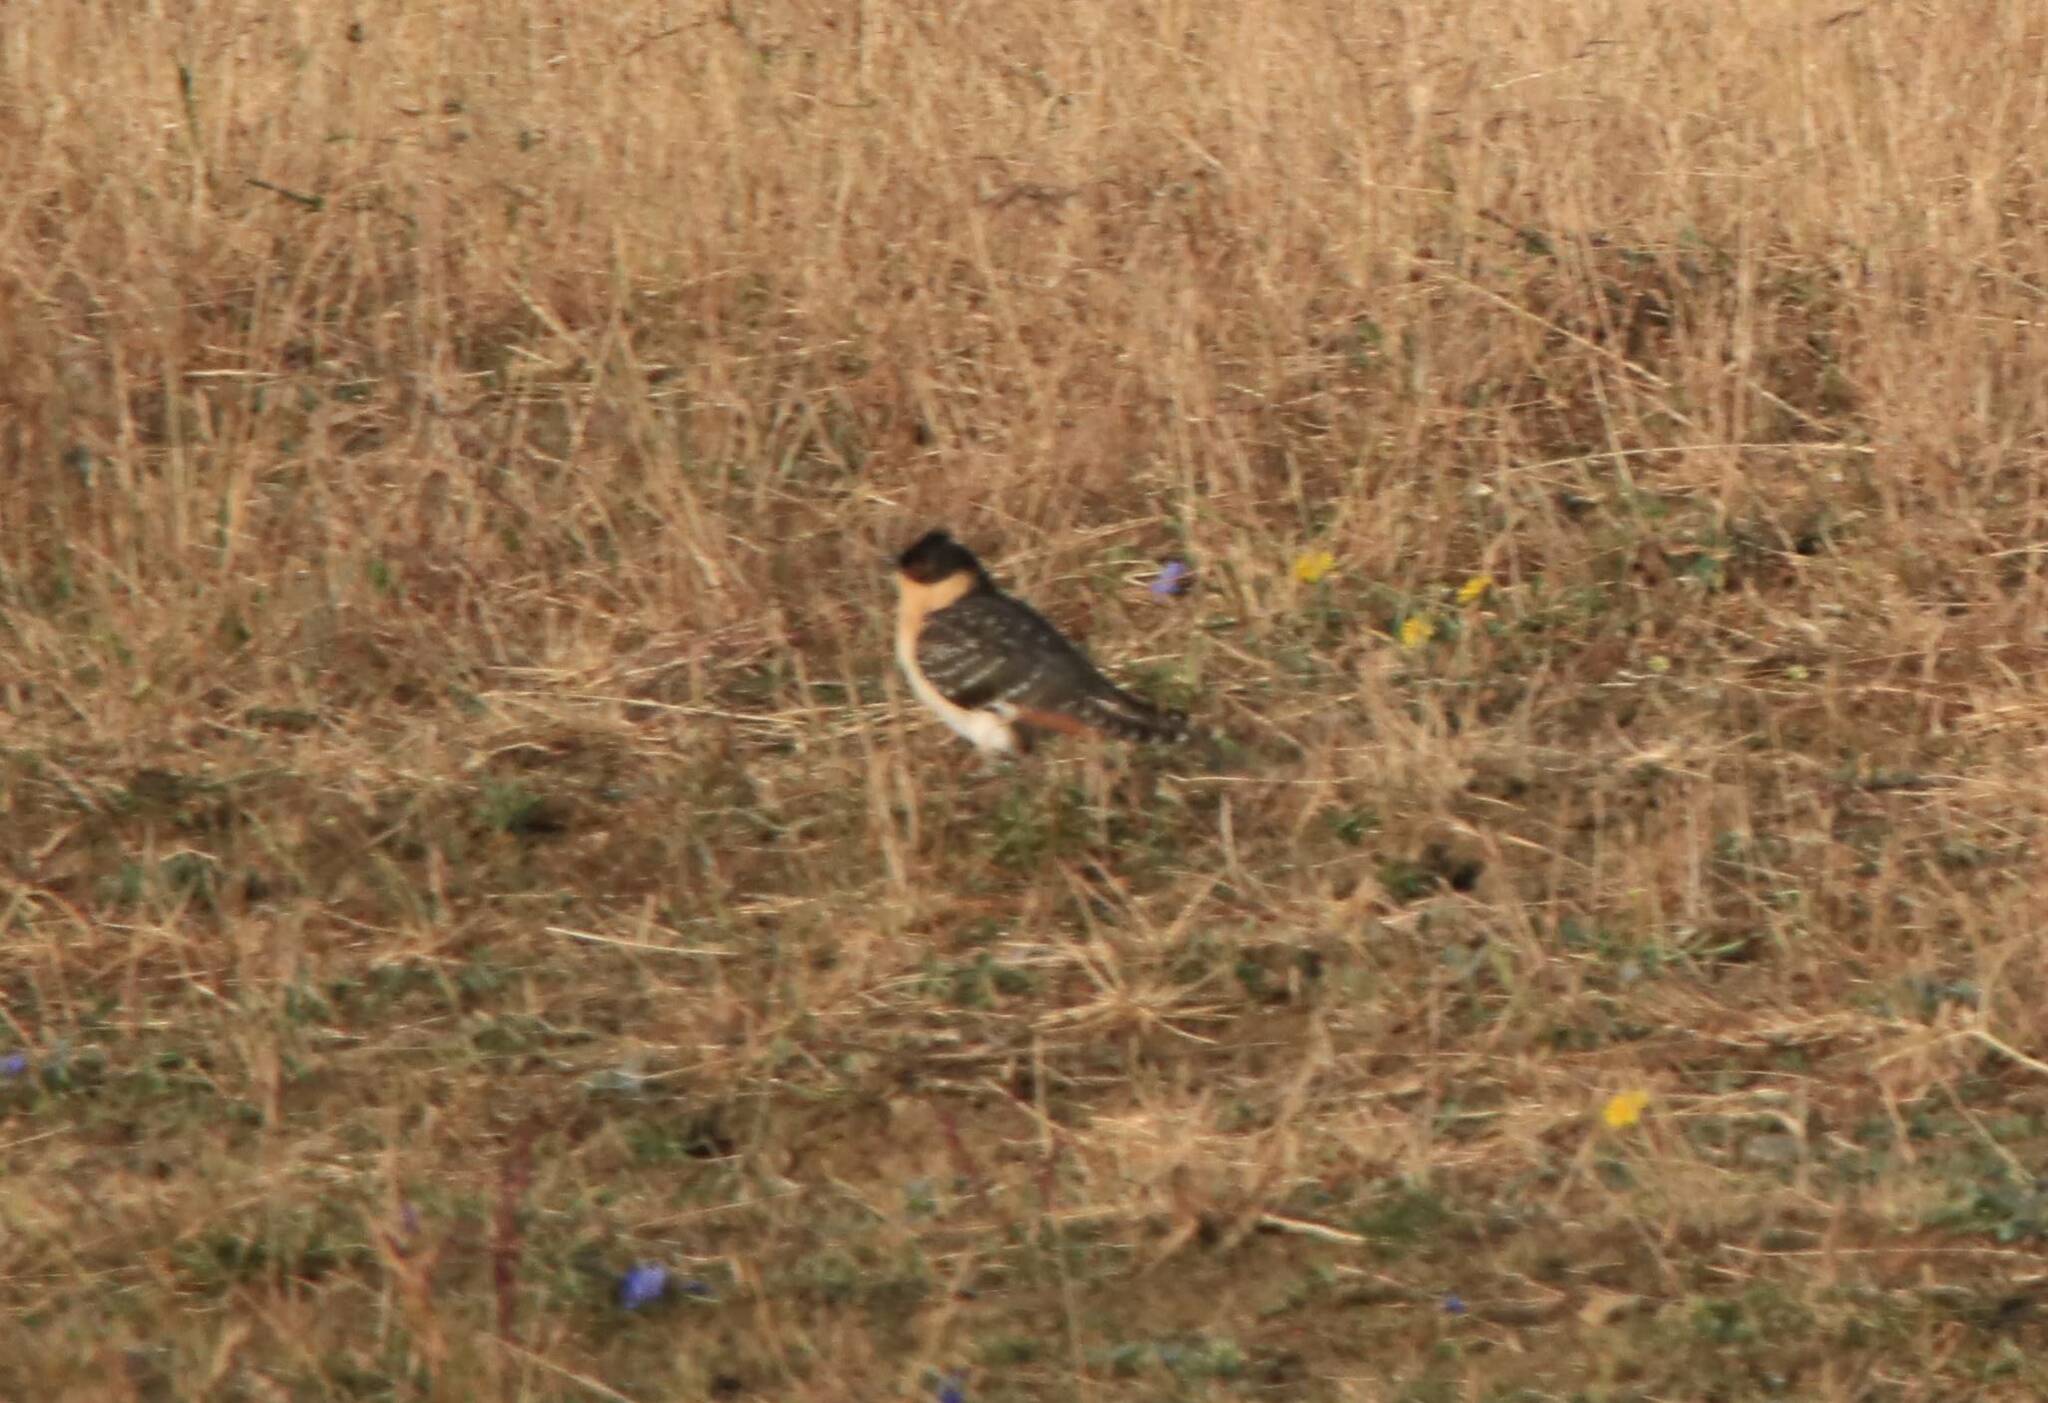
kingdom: Animalia
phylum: Chordata
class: Aves
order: Cuculiformes
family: Cuculidae
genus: Clamator
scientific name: Clamator glandarius
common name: Great spotted cuckoo
